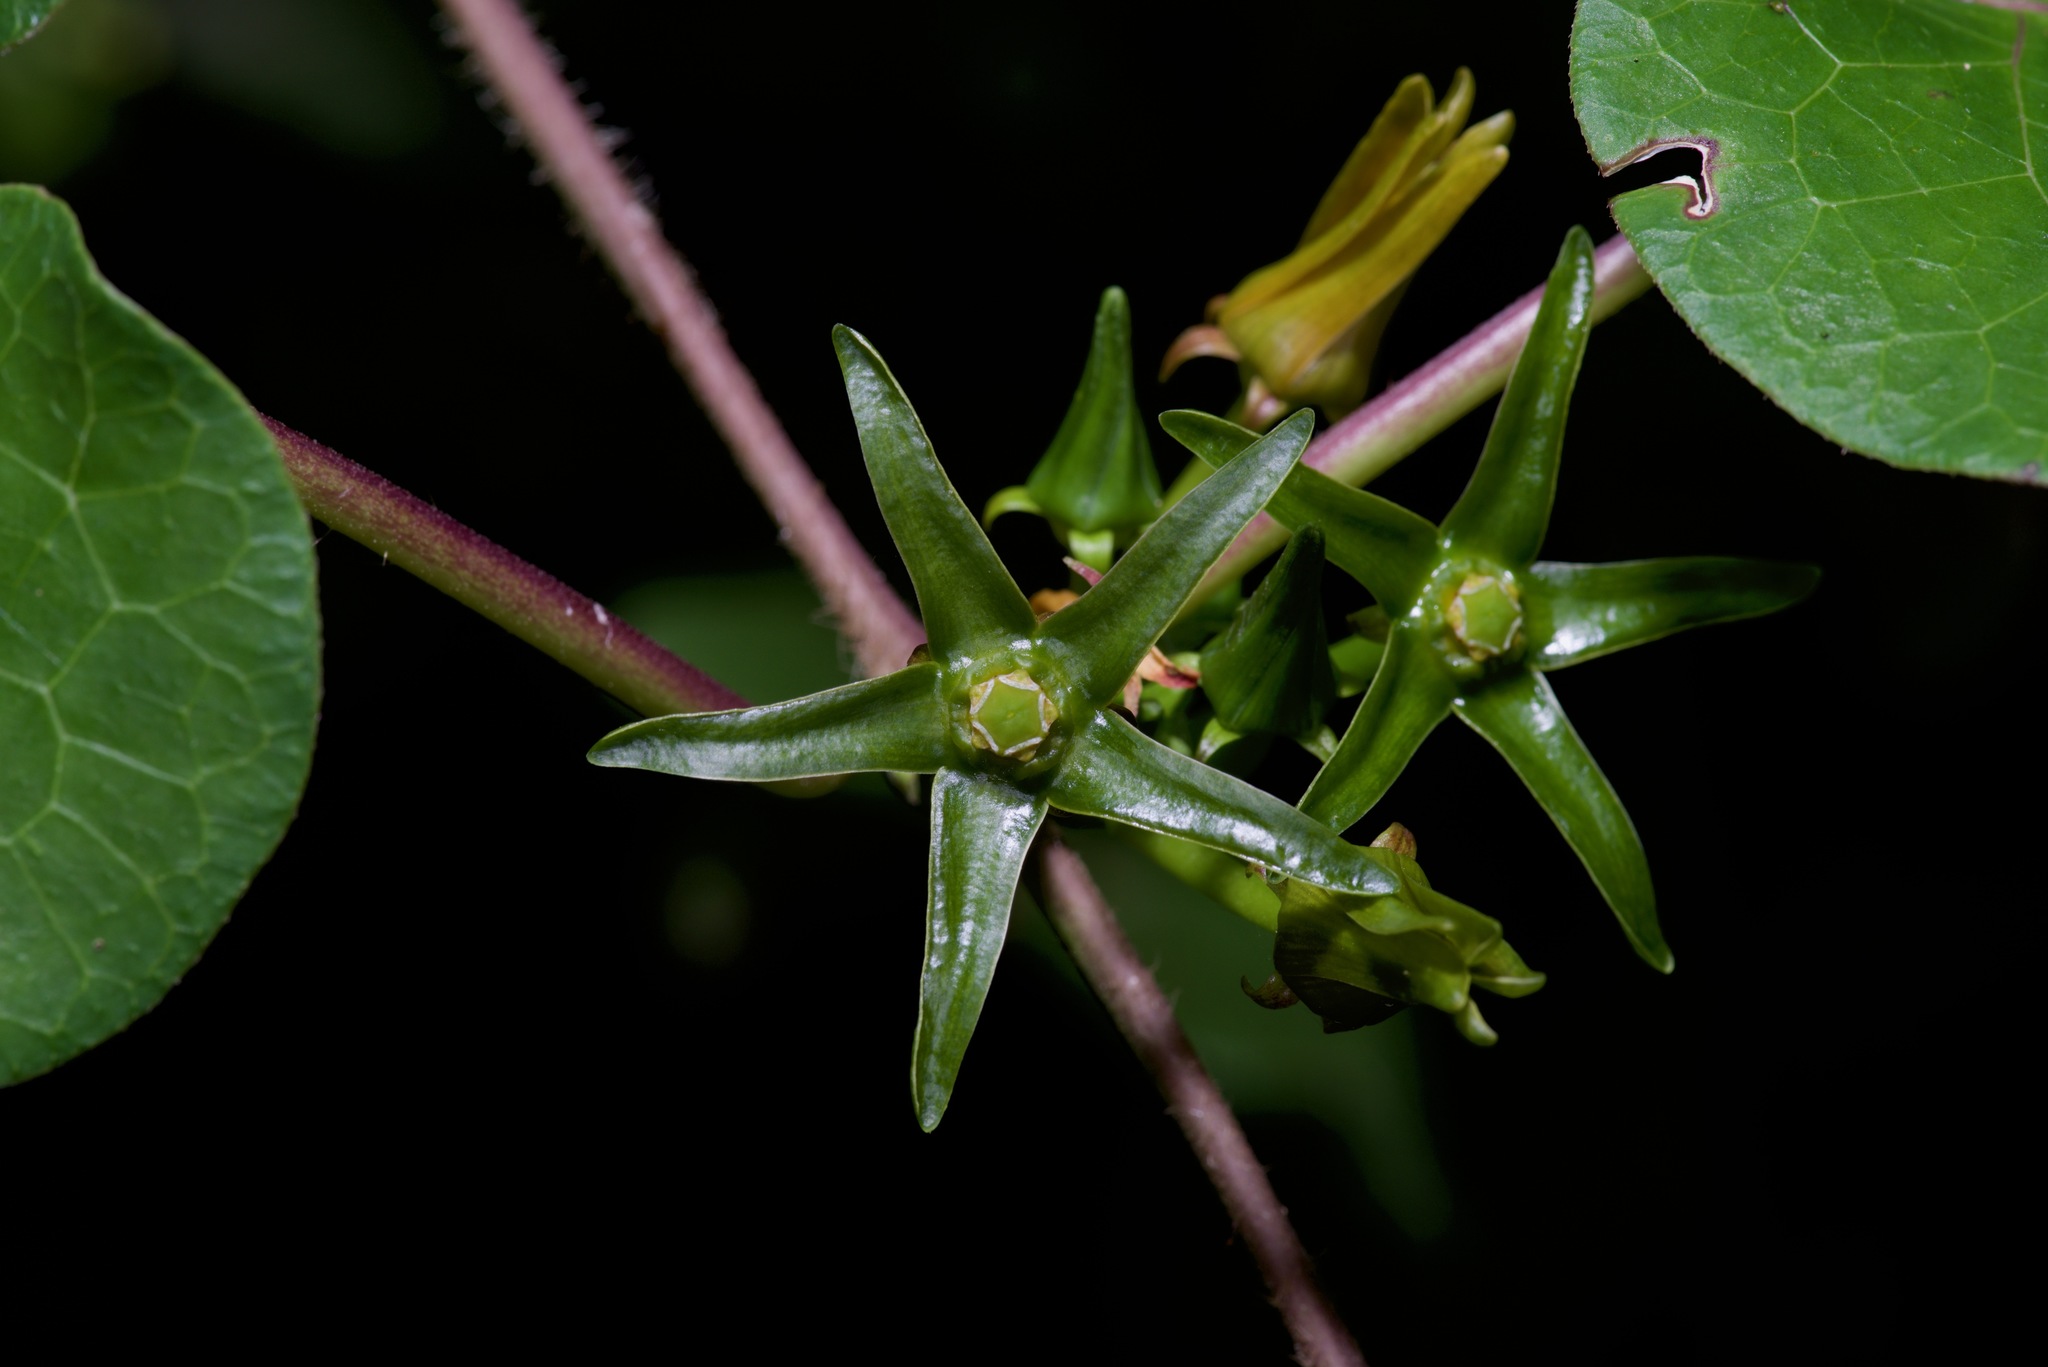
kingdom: Plantae
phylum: Tracheophyta
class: Magnoliopsida
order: Gentianales
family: Apocynaceae
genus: Gonolobus
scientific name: Gonolobus suberosus
